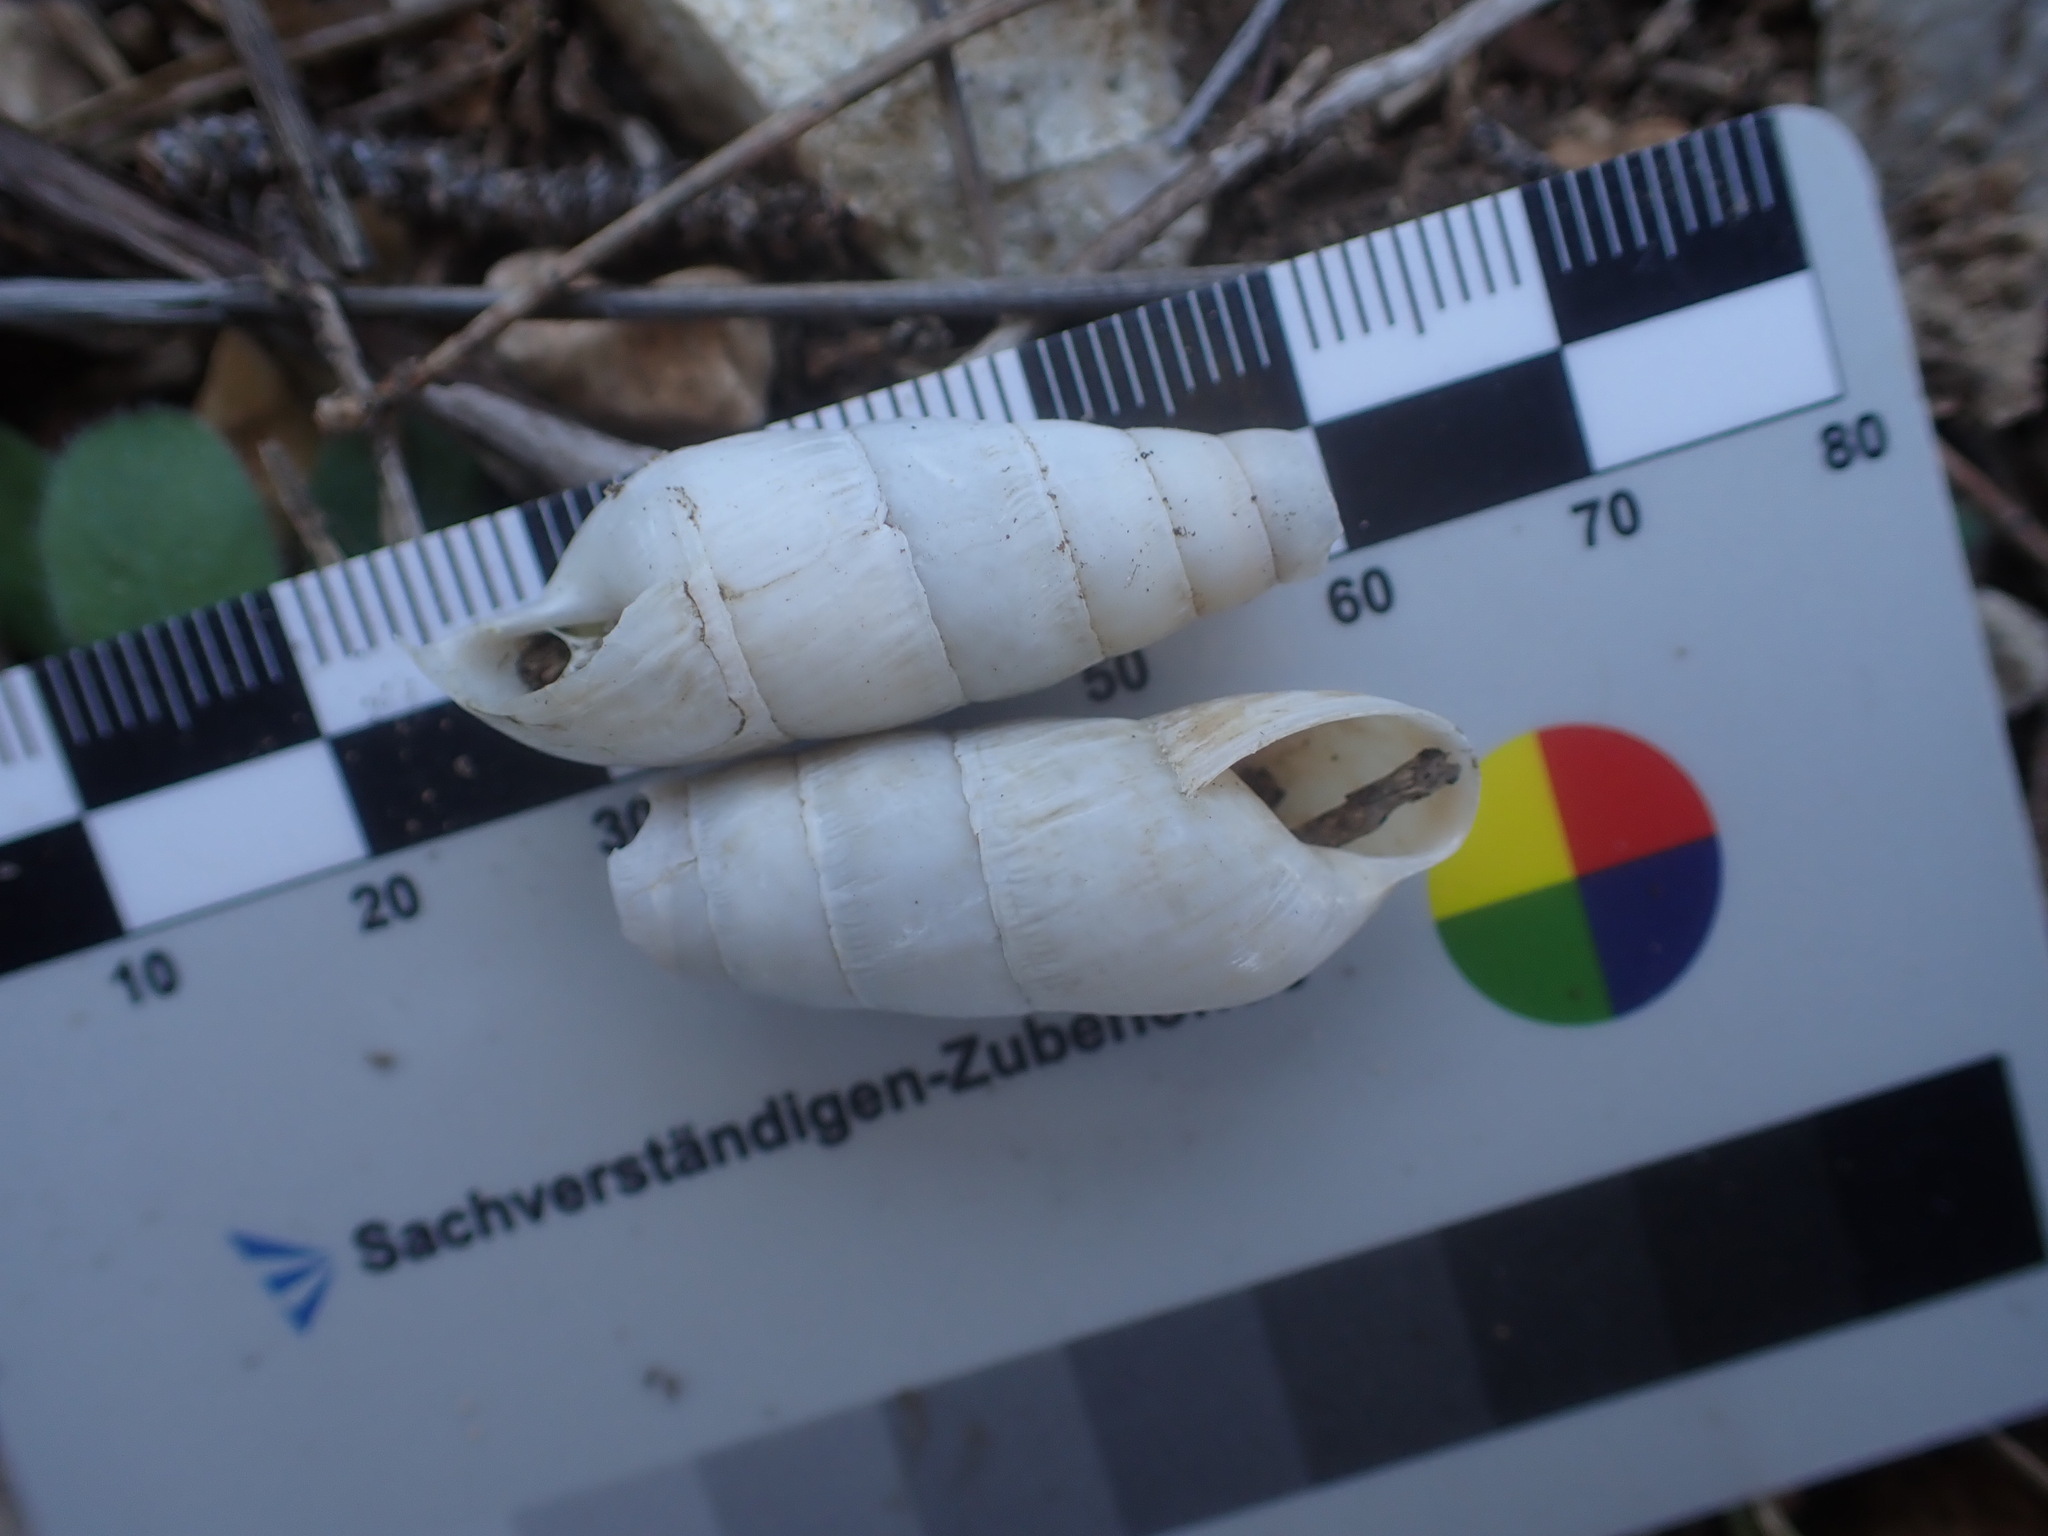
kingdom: Animalia
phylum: Mollusca
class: Gastropoda
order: Stylommatophora
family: Achatinidae
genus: Rumina
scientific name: Rumina decollata
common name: Decollate snail
